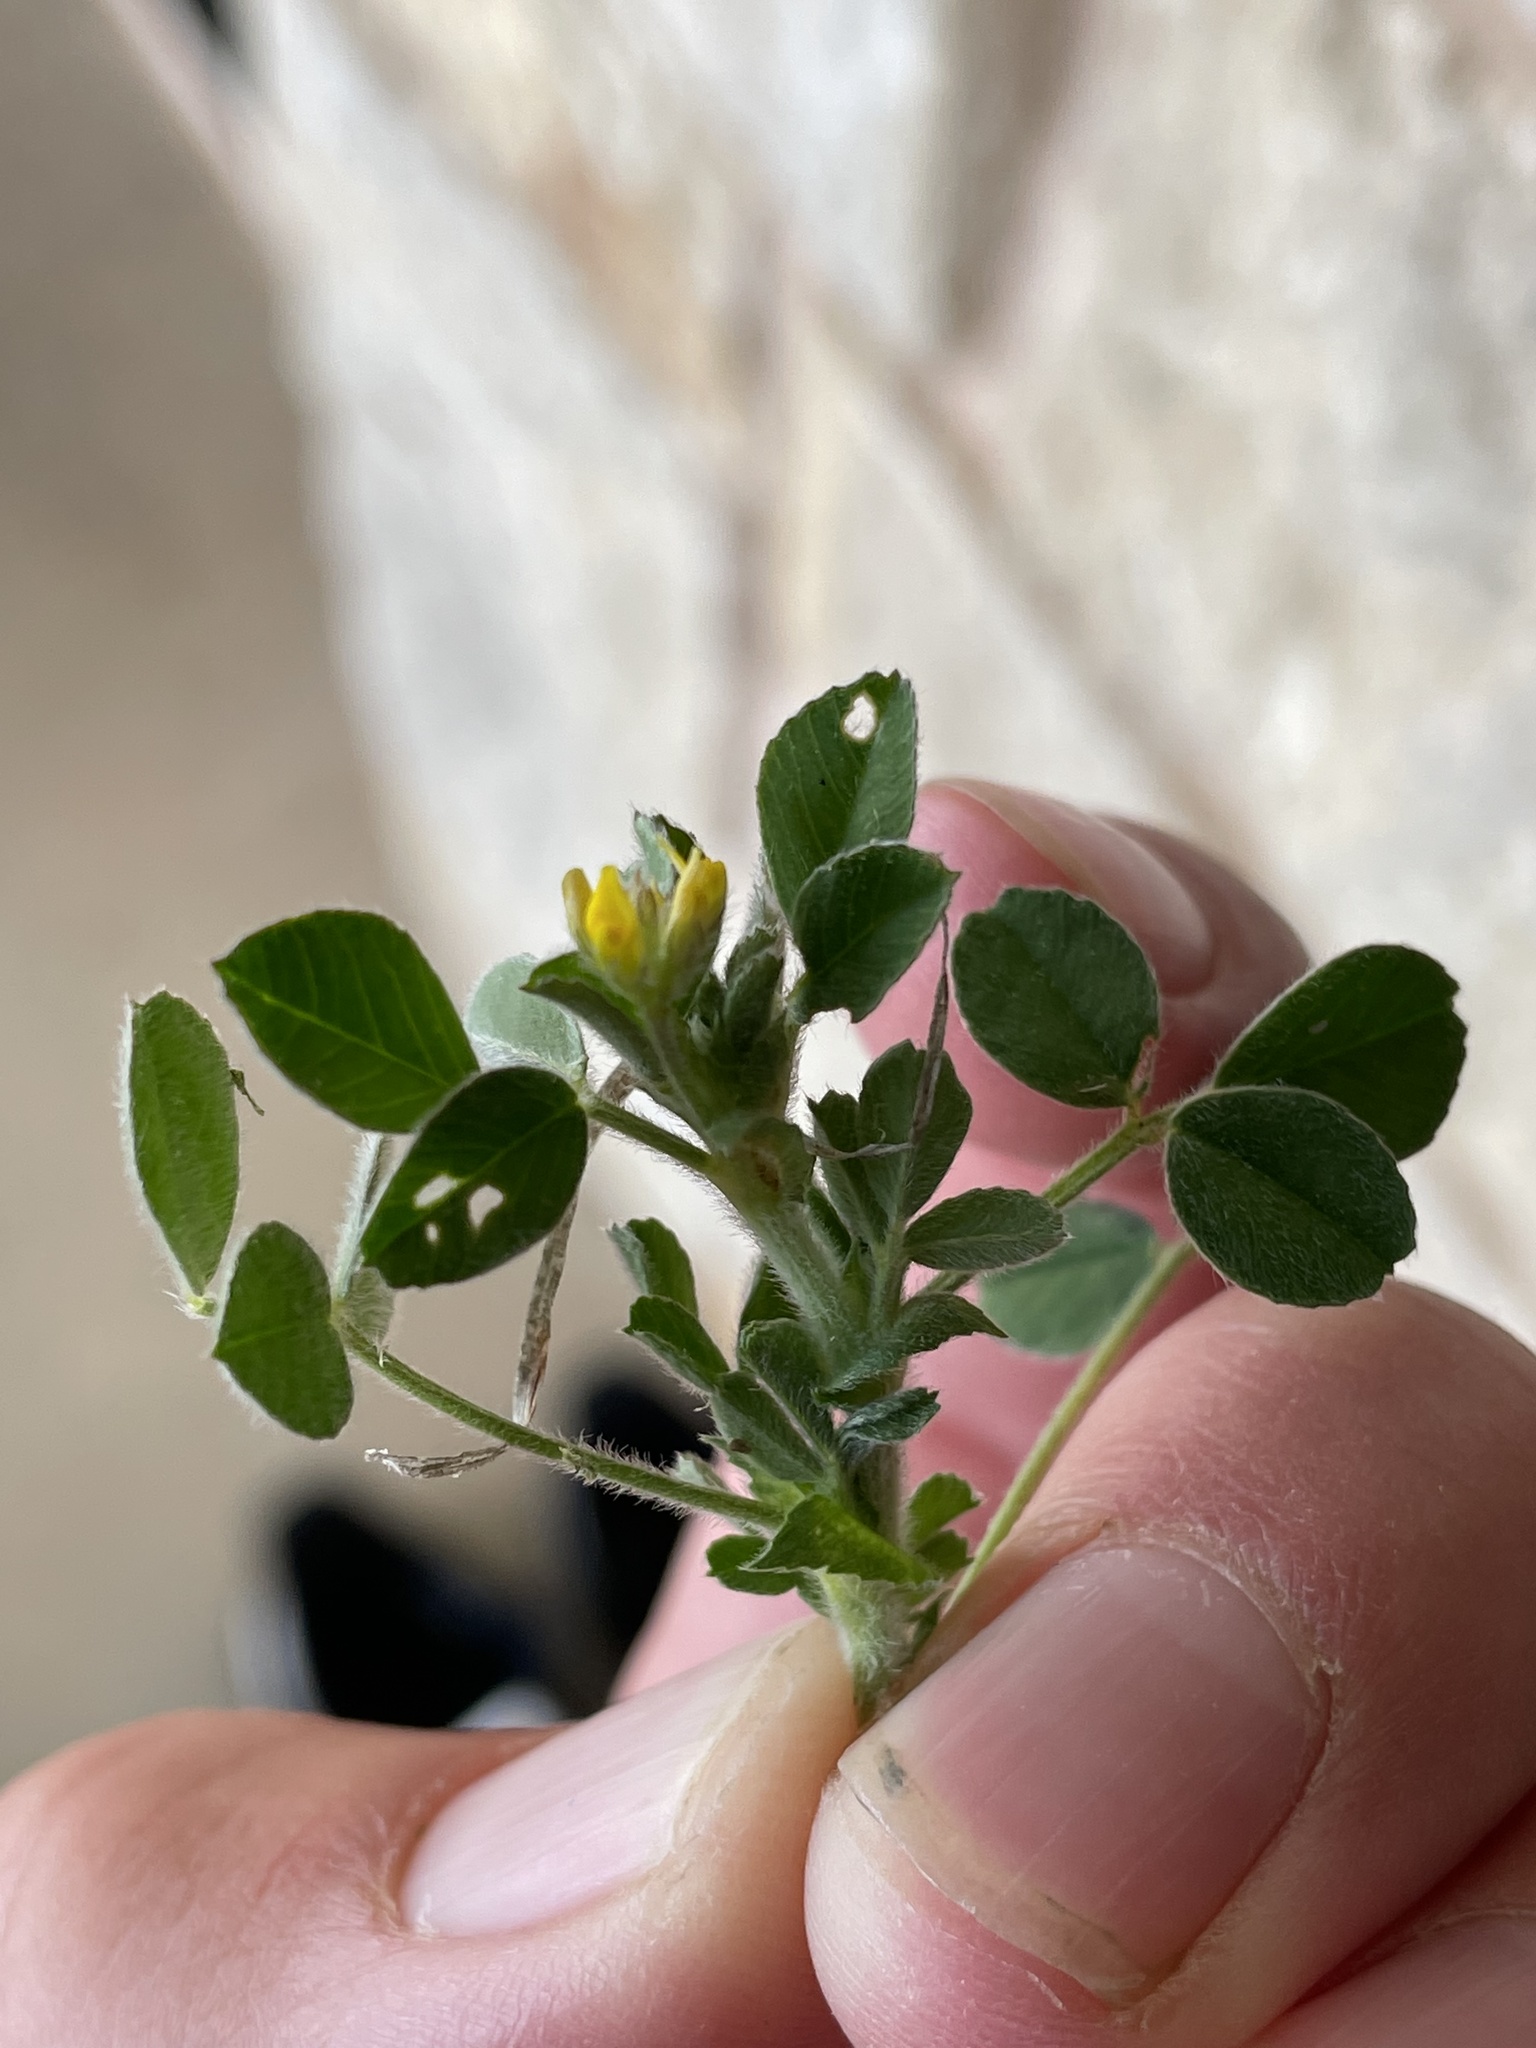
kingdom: Plantae
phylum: Tracheophyta
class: Magnoliopsida
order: Fabales
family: Fabaceae
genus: Medicago
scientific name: Medicago minima
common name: Little bur-clover
